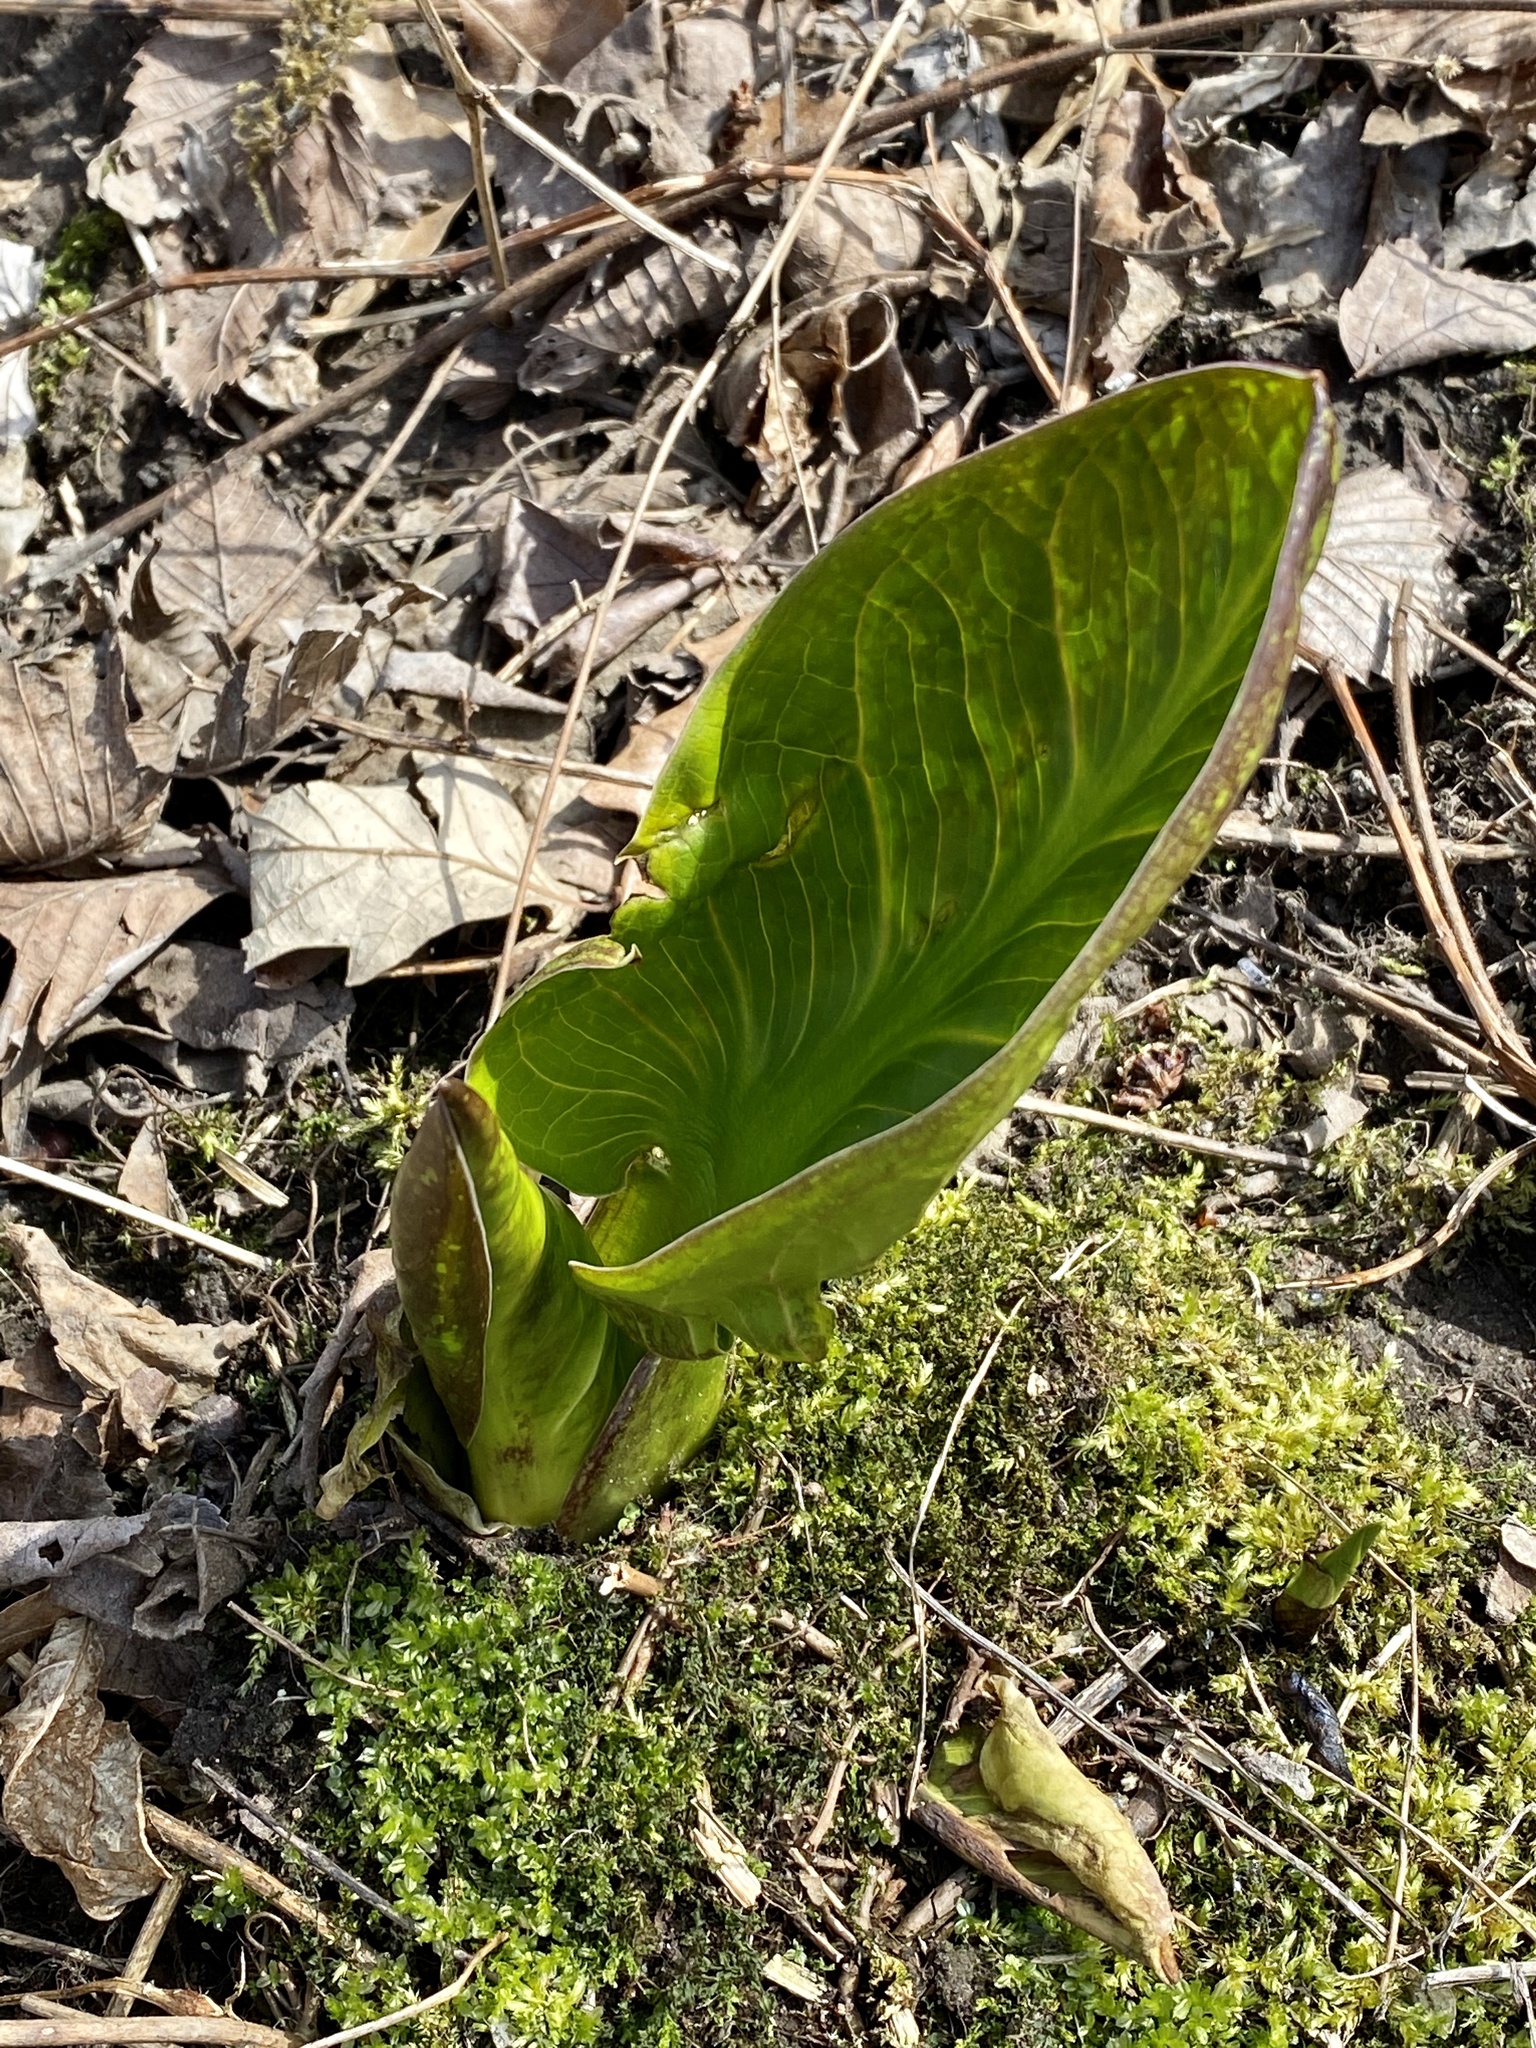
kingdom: Plantae
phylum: Tracheophyta
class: Liliopsida
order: Alismatales
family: Araceae
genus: Symplocarpus
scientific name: Symplocarpus foetidus
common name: Eastern skunk cabbage
